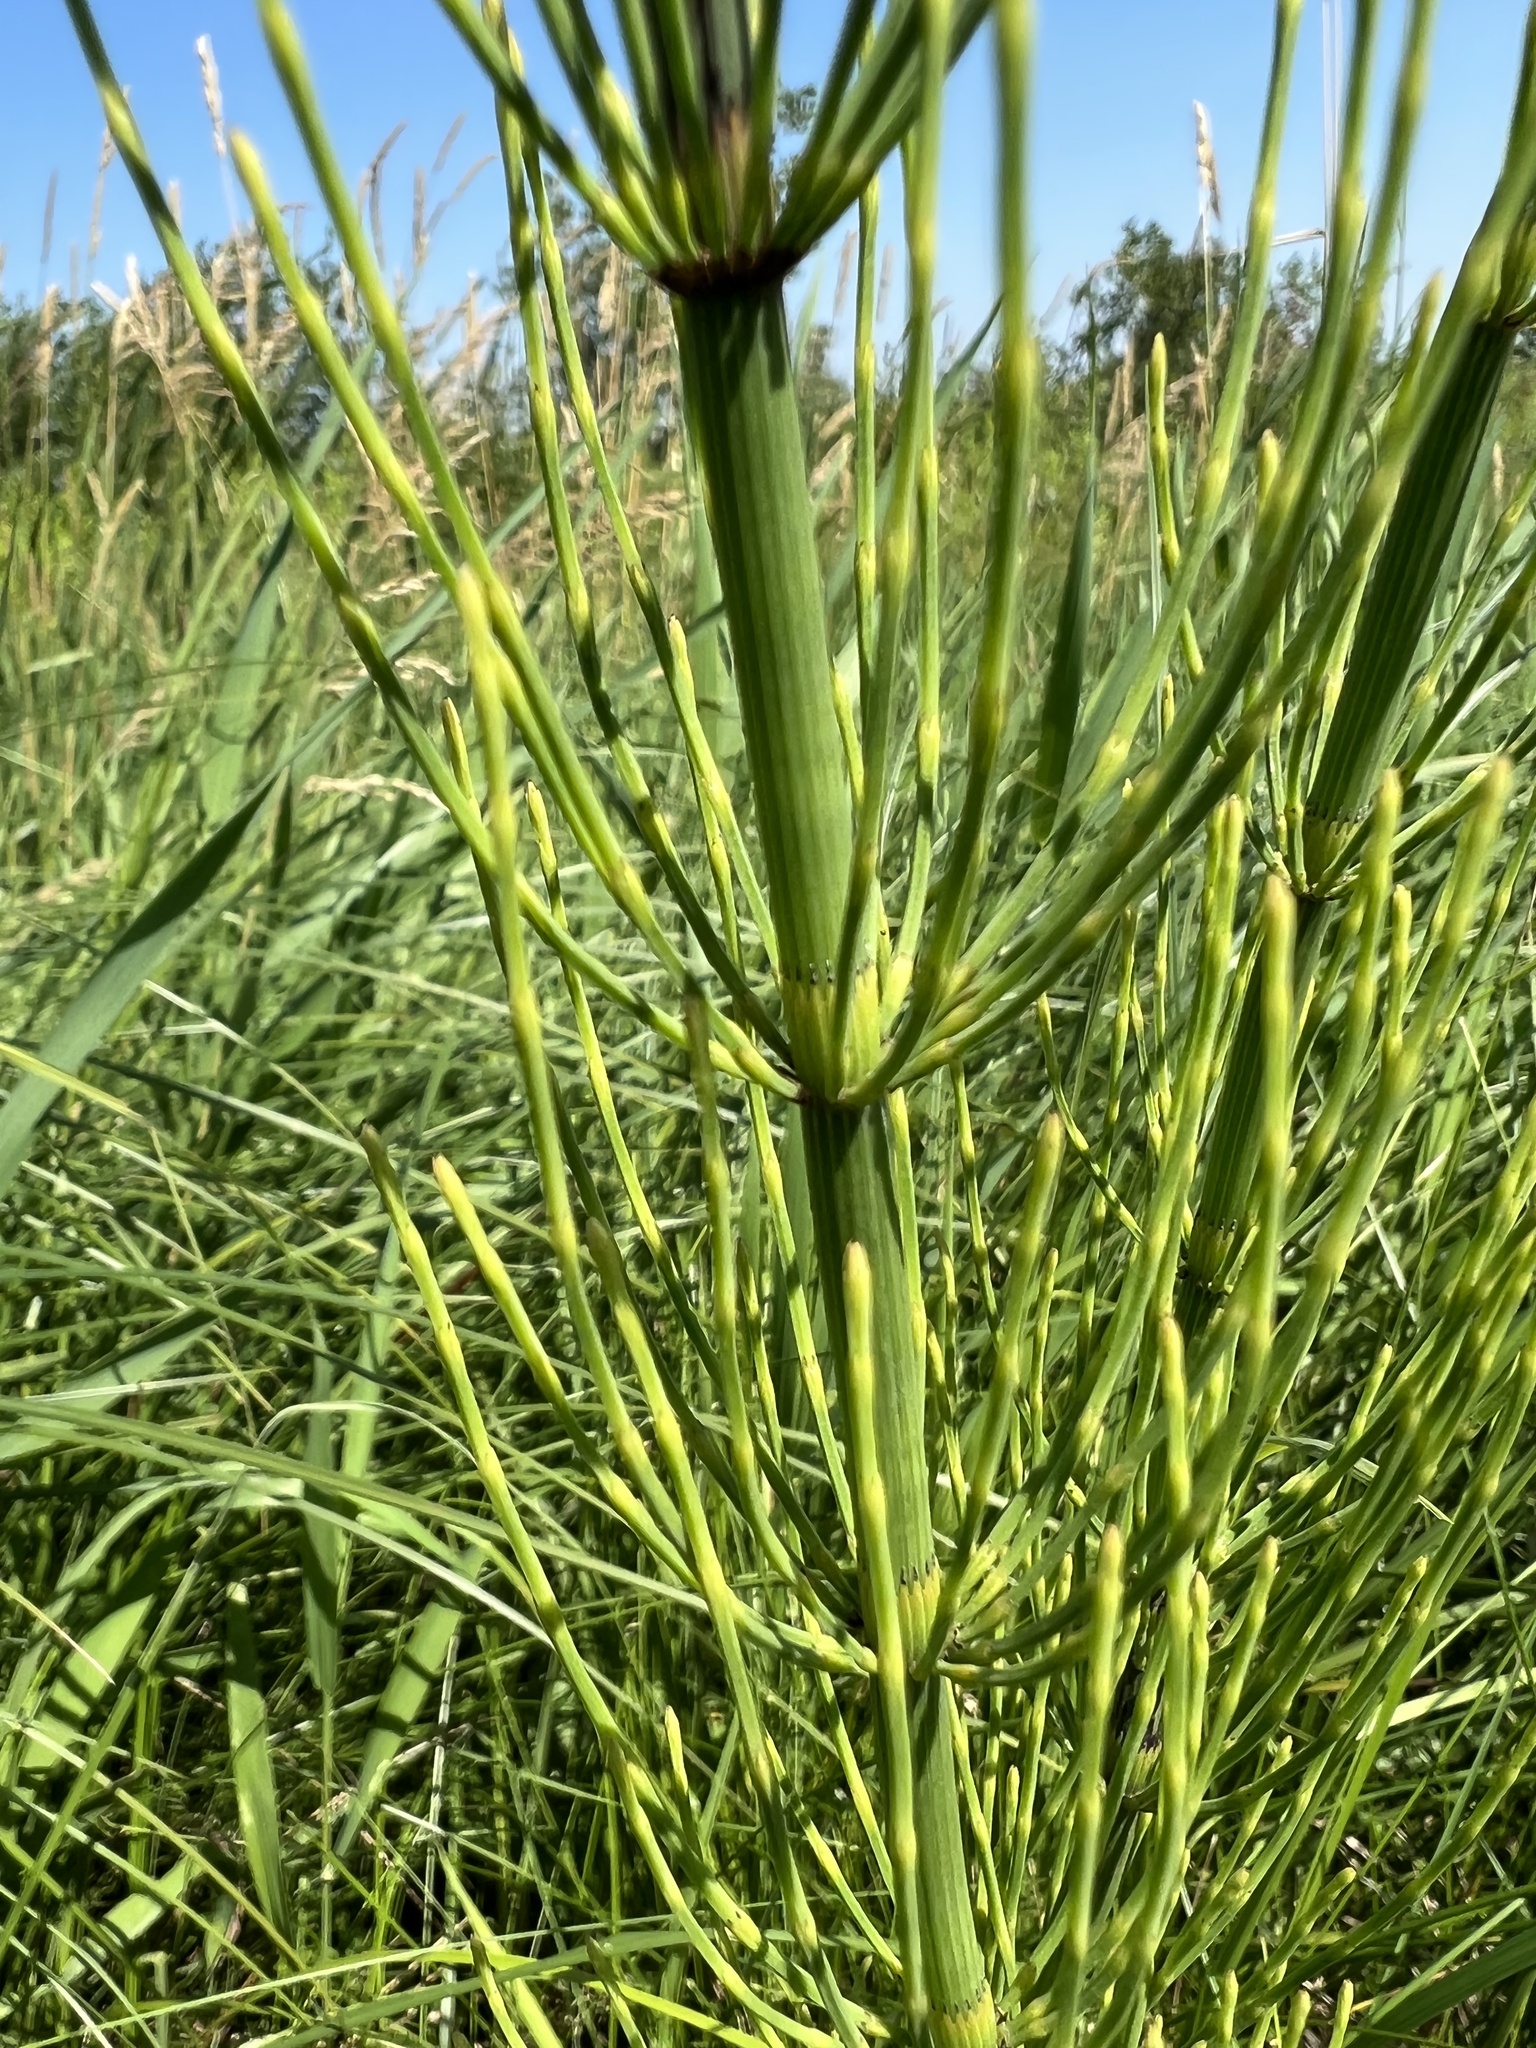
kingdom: Plantae
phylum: Tracheophyta
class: Polypodiopsida
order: Equisetales
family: Equisetaceae
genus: Equisetum
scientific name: Equisetum fluviatile
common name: Water horsetail
